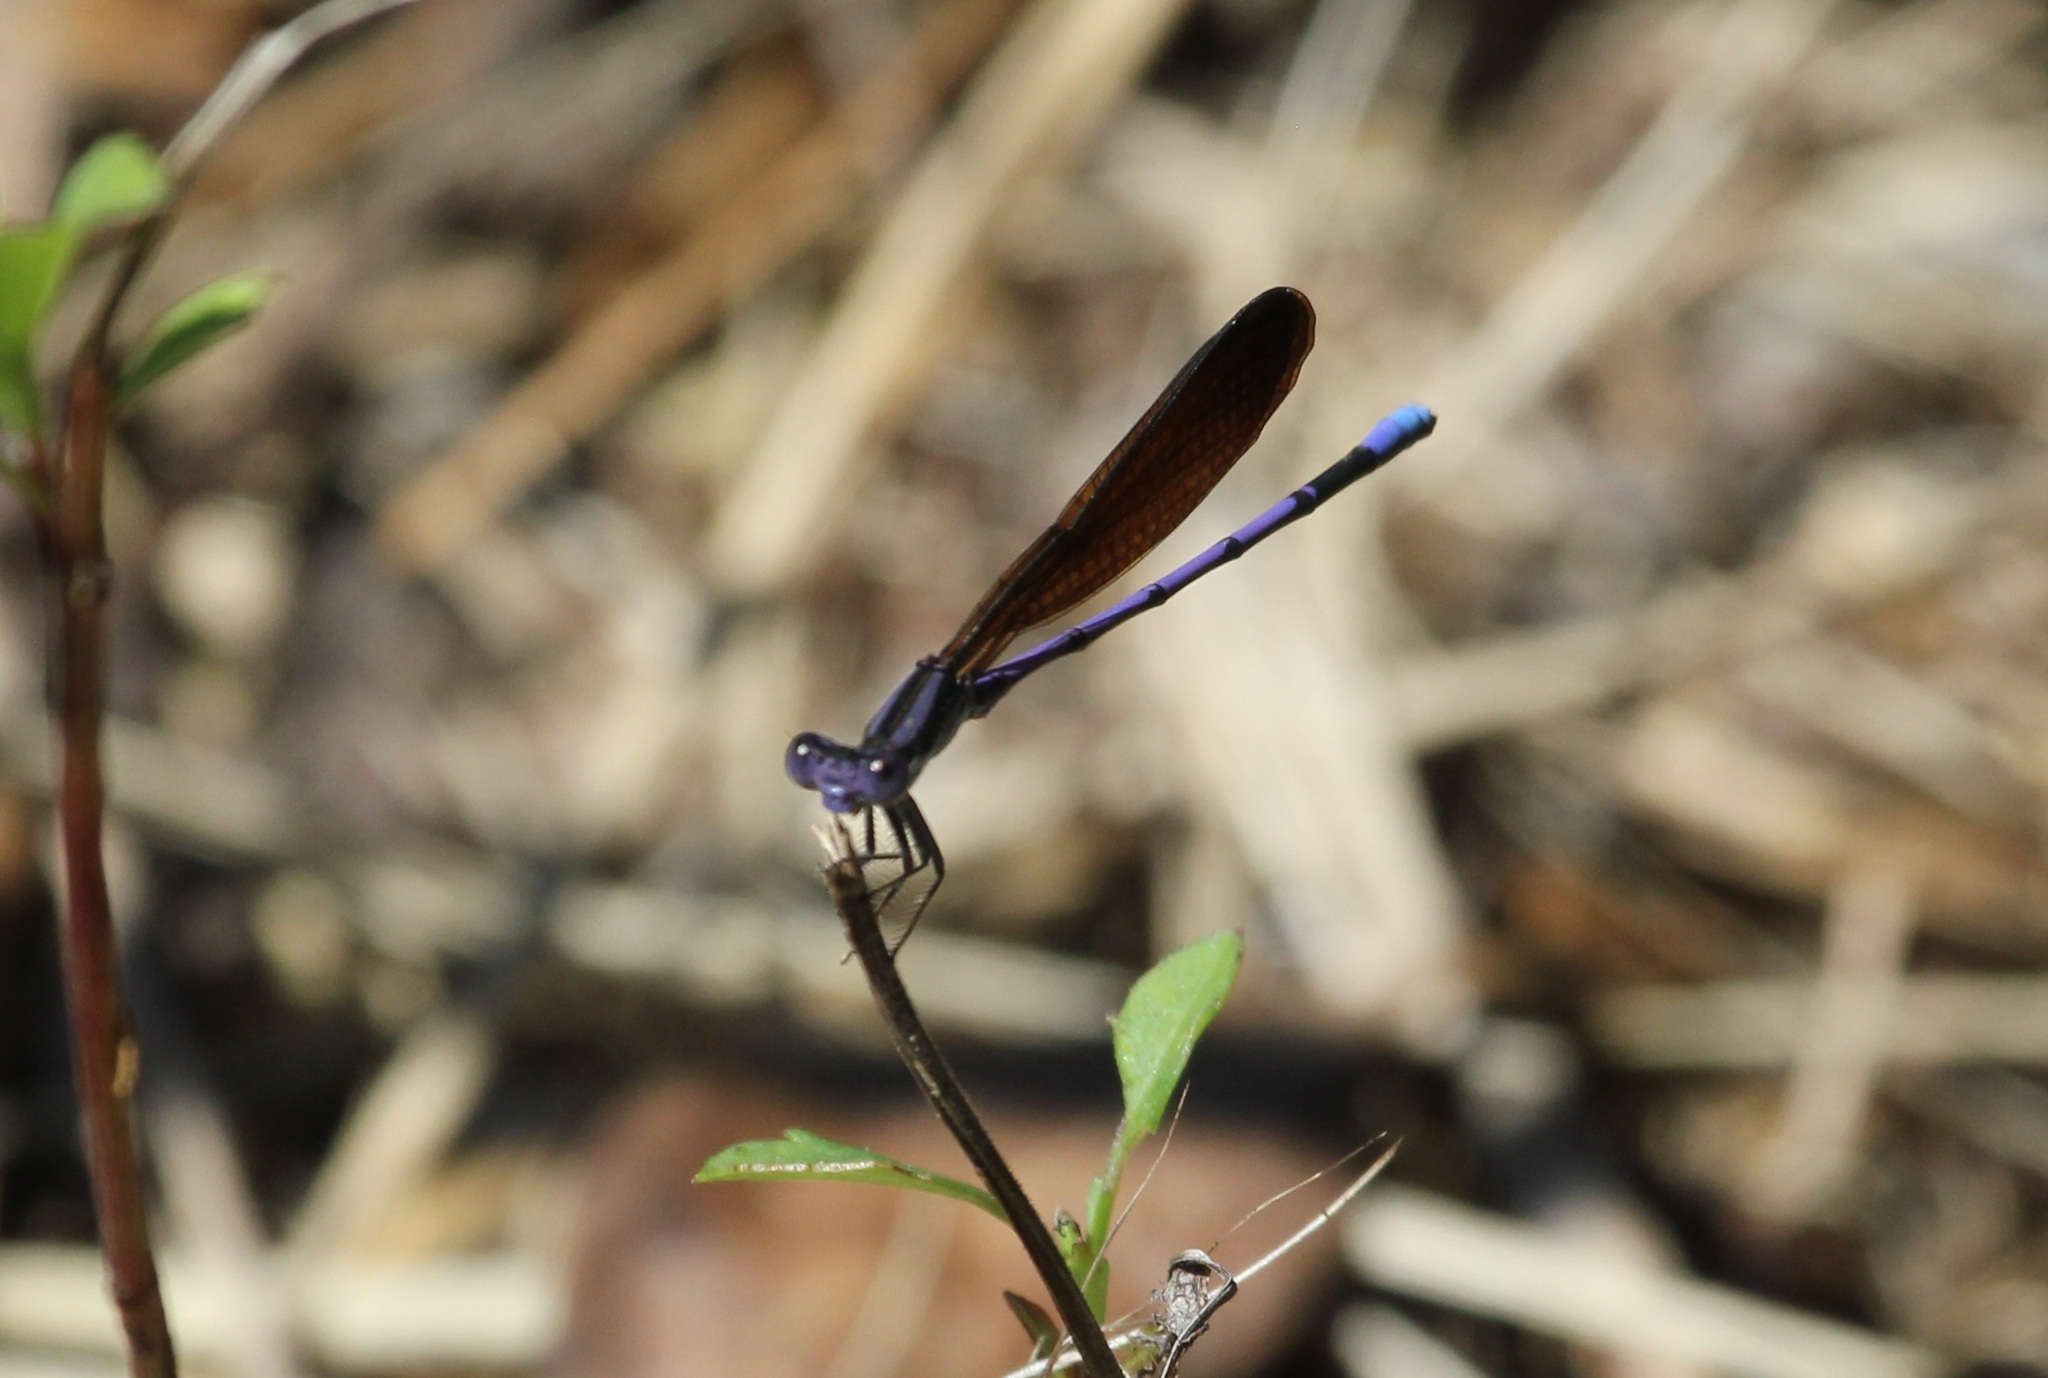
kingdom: Animalia
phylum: Arthropoda
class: Insecta
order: Odonata
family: Coenagrionidae
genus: Argia
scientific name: Argia fumipennis
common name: Variable dancer
